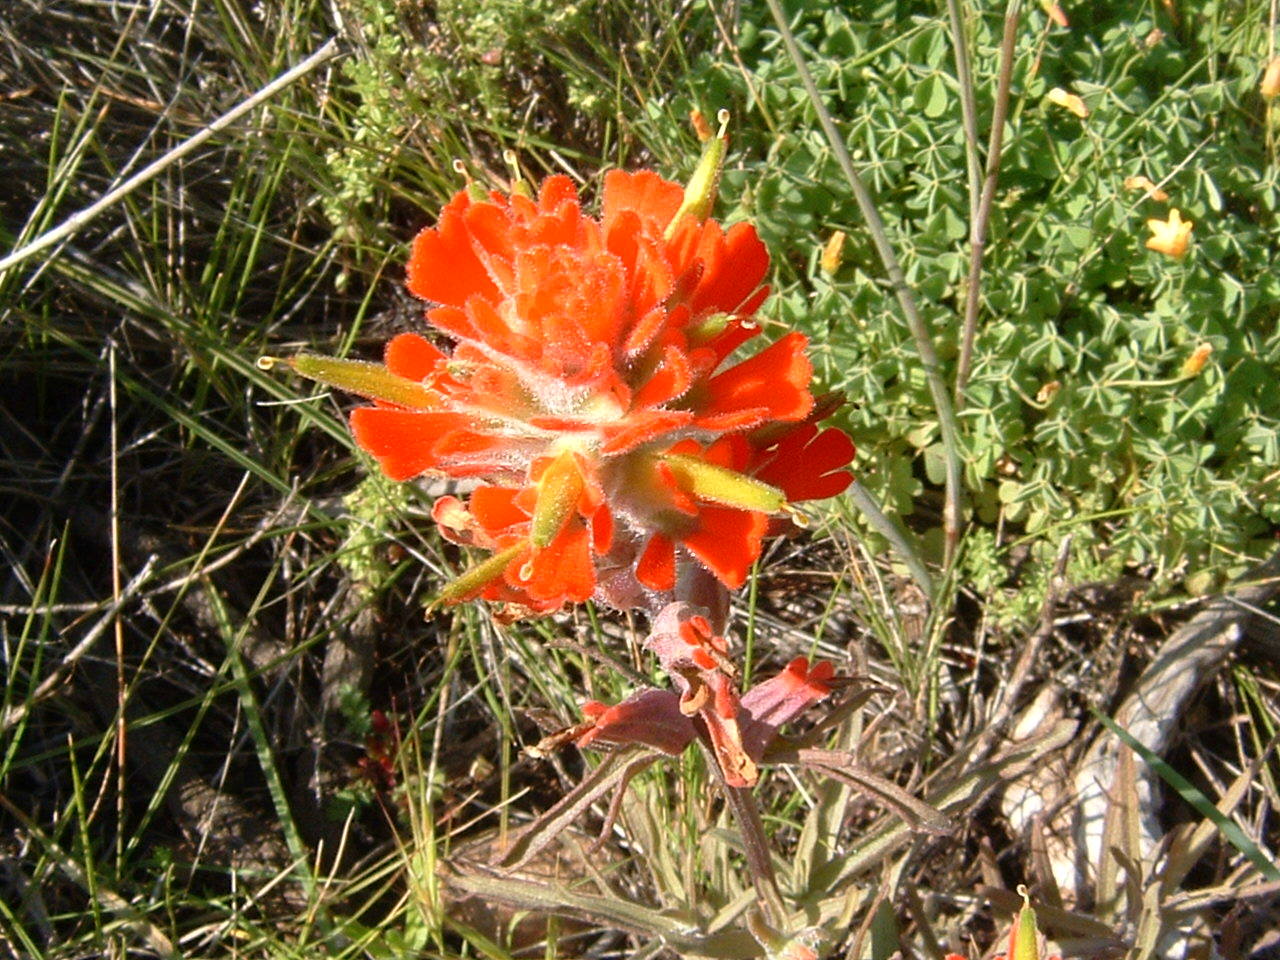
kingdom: Plantae
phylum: Tracheophyta
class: Magnoliopsida
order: Lamiales
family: Orobanchaceae
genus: Castilleja
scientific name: Castilleja affinis
